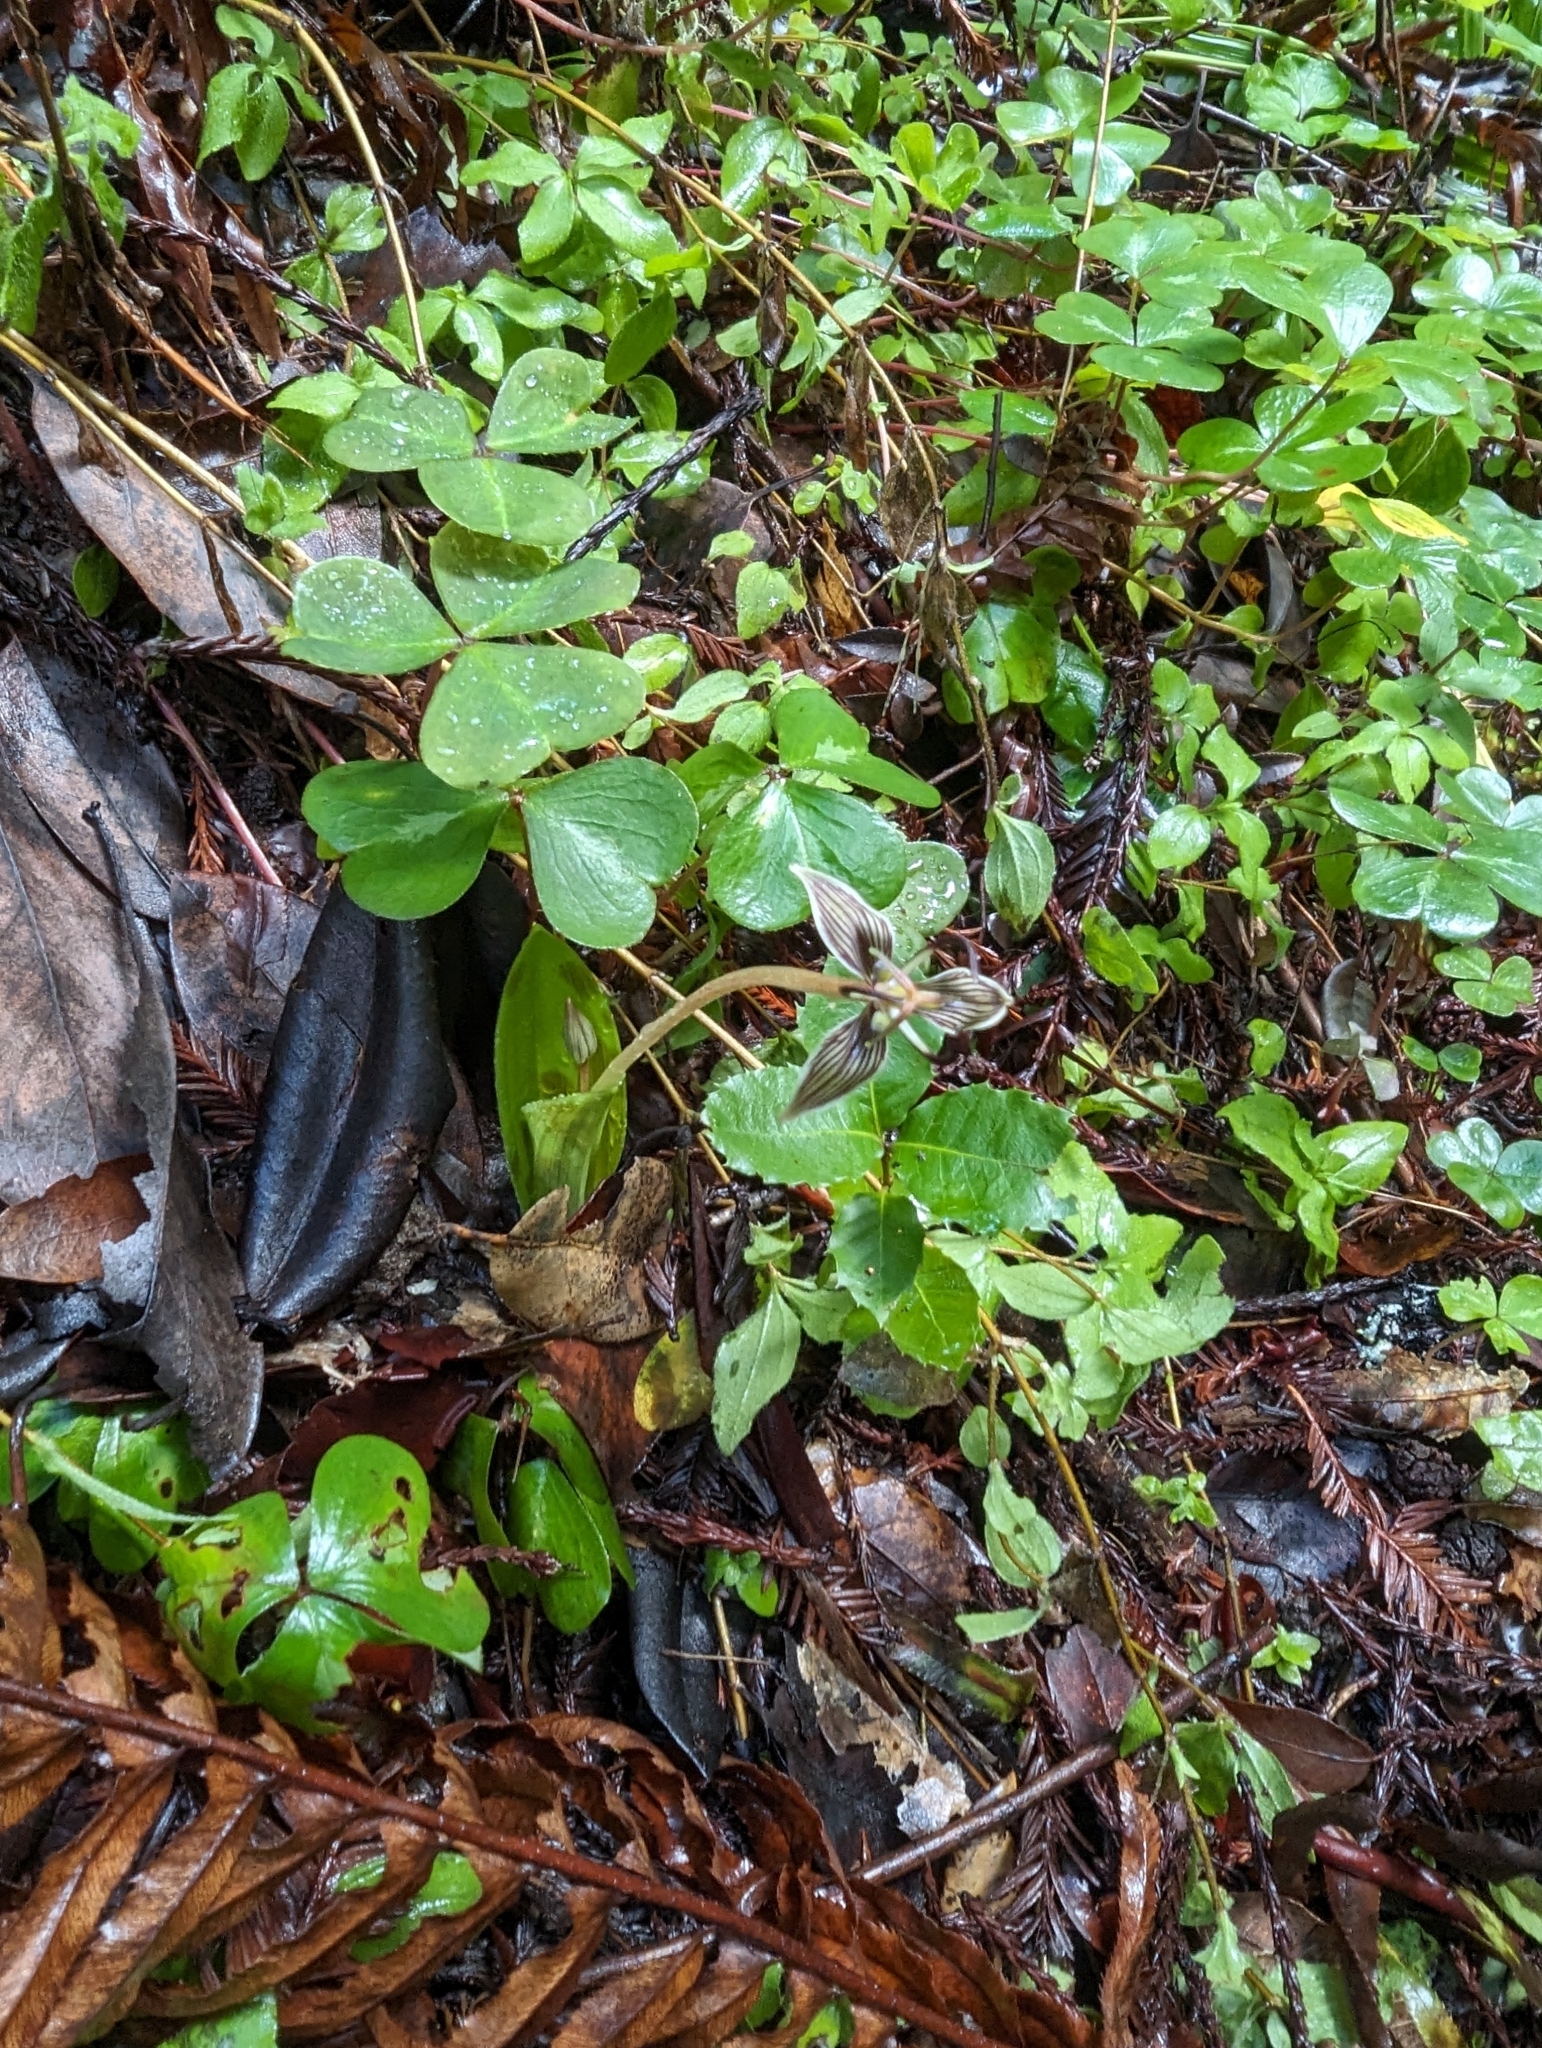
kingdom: Plantae
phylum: Tracheophyta
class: Liliopsida
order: Liliales
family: Liliaceae
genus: Scoliopus
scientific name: Scoliopus bigelovii
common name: Foetid adder's-tongue
